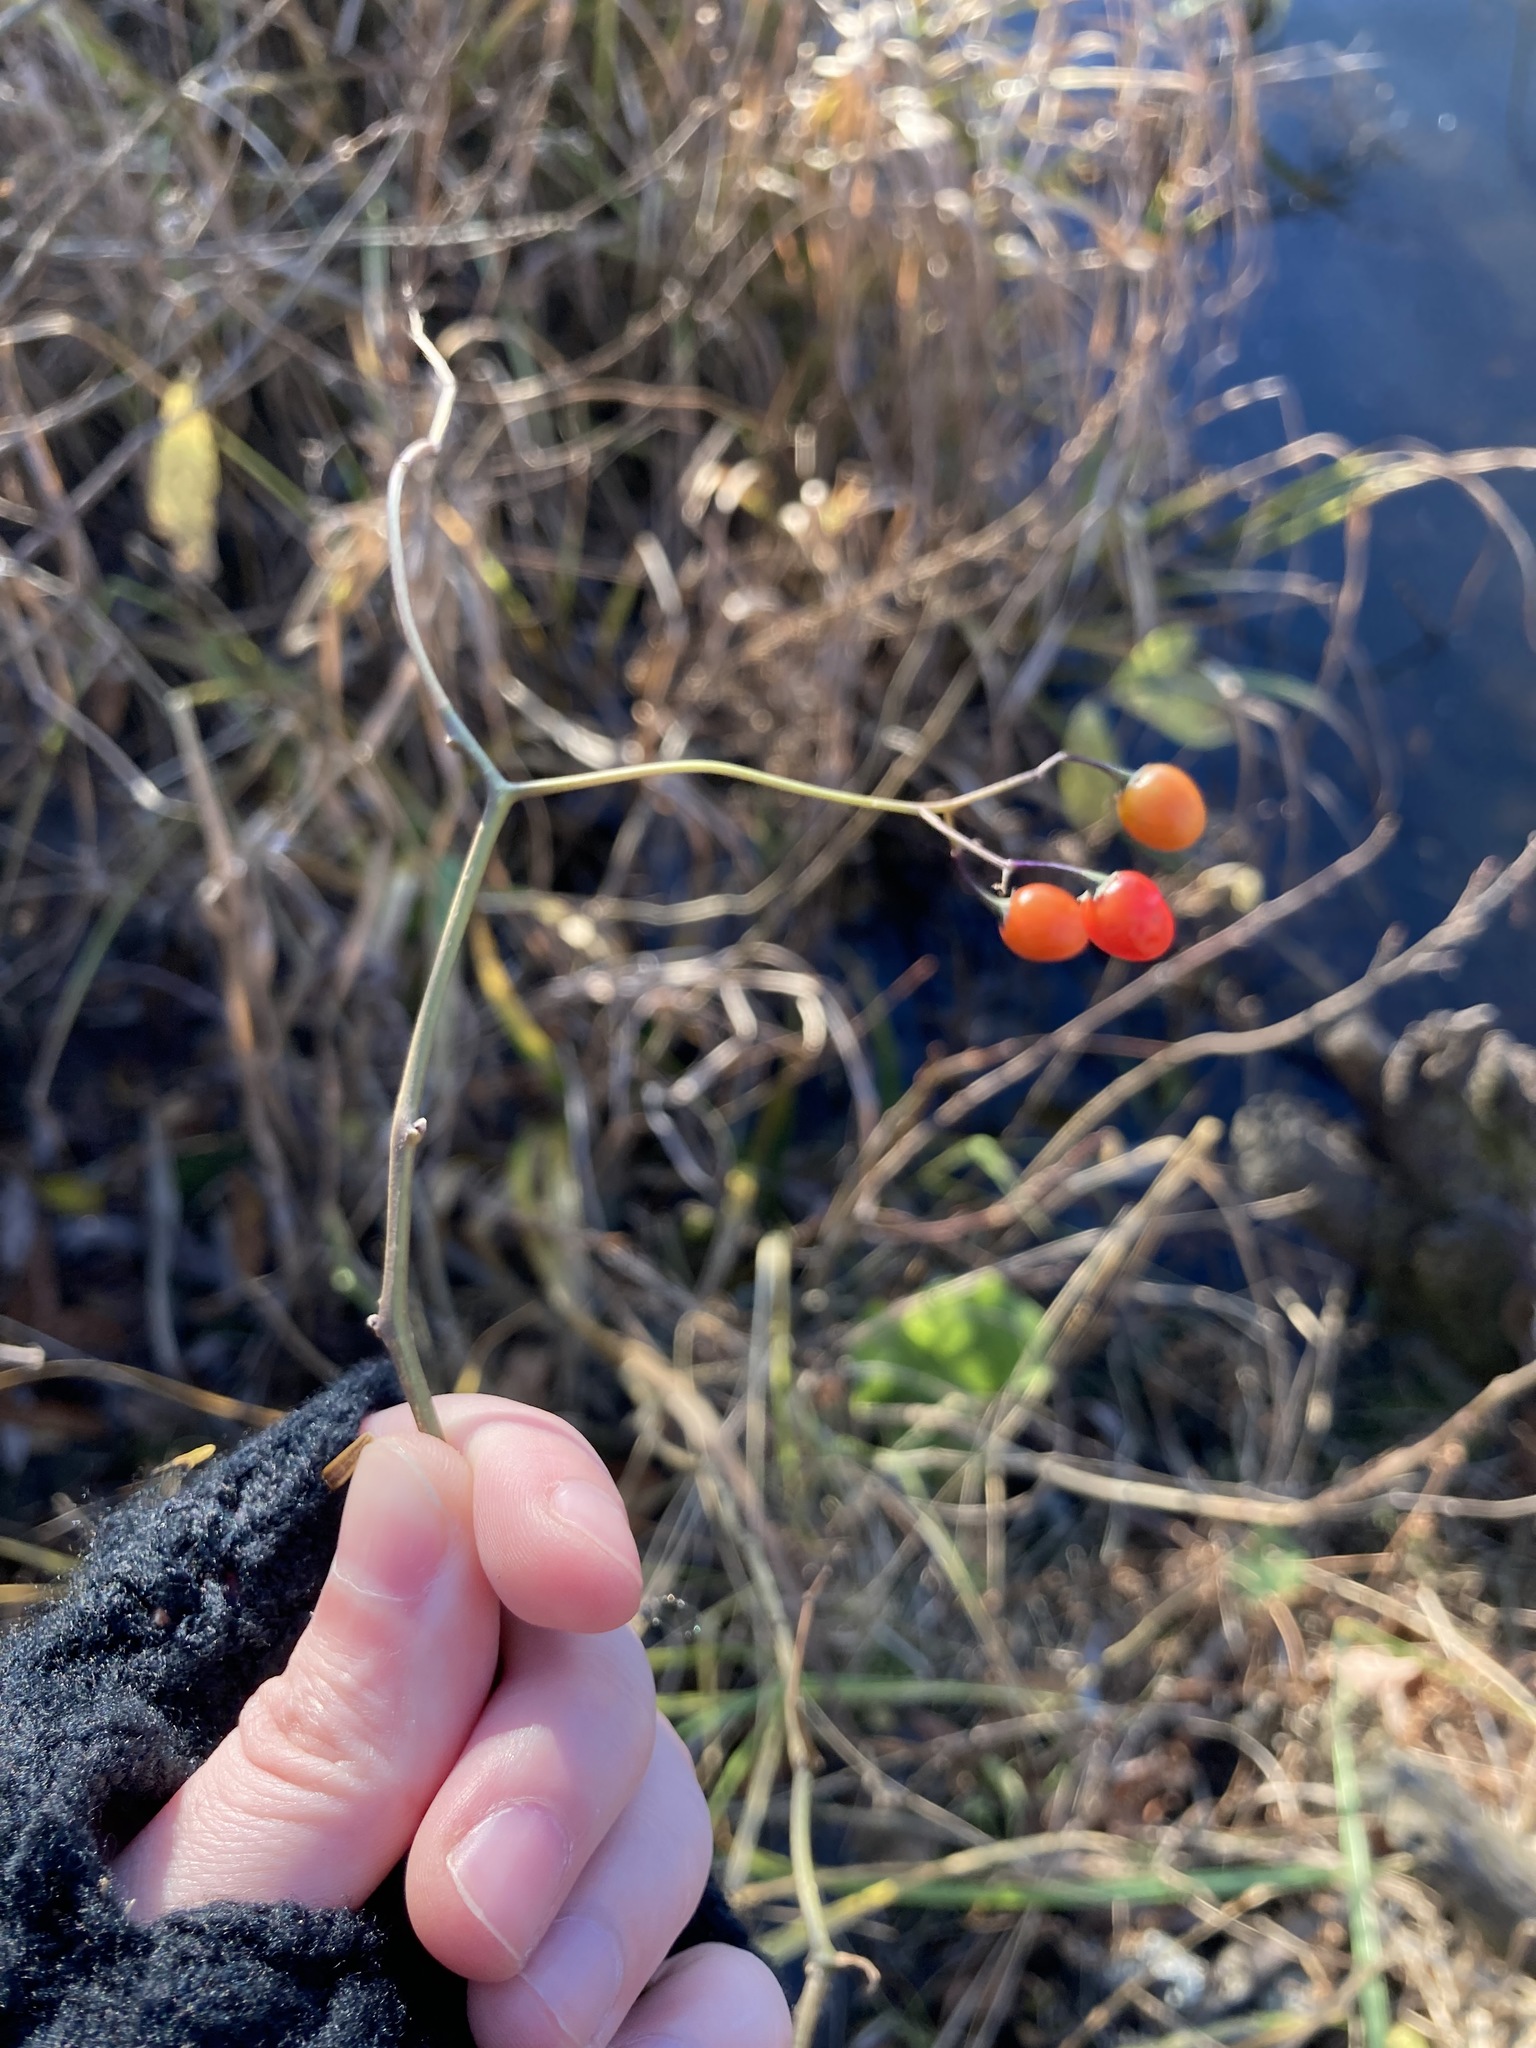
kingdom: Plantae
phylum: Tracheophyta
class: Magnoliopsida
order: Solanales
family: Solanaceae
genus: Solanum
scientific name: Solanum dulcamara
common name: Climbing nightshade
